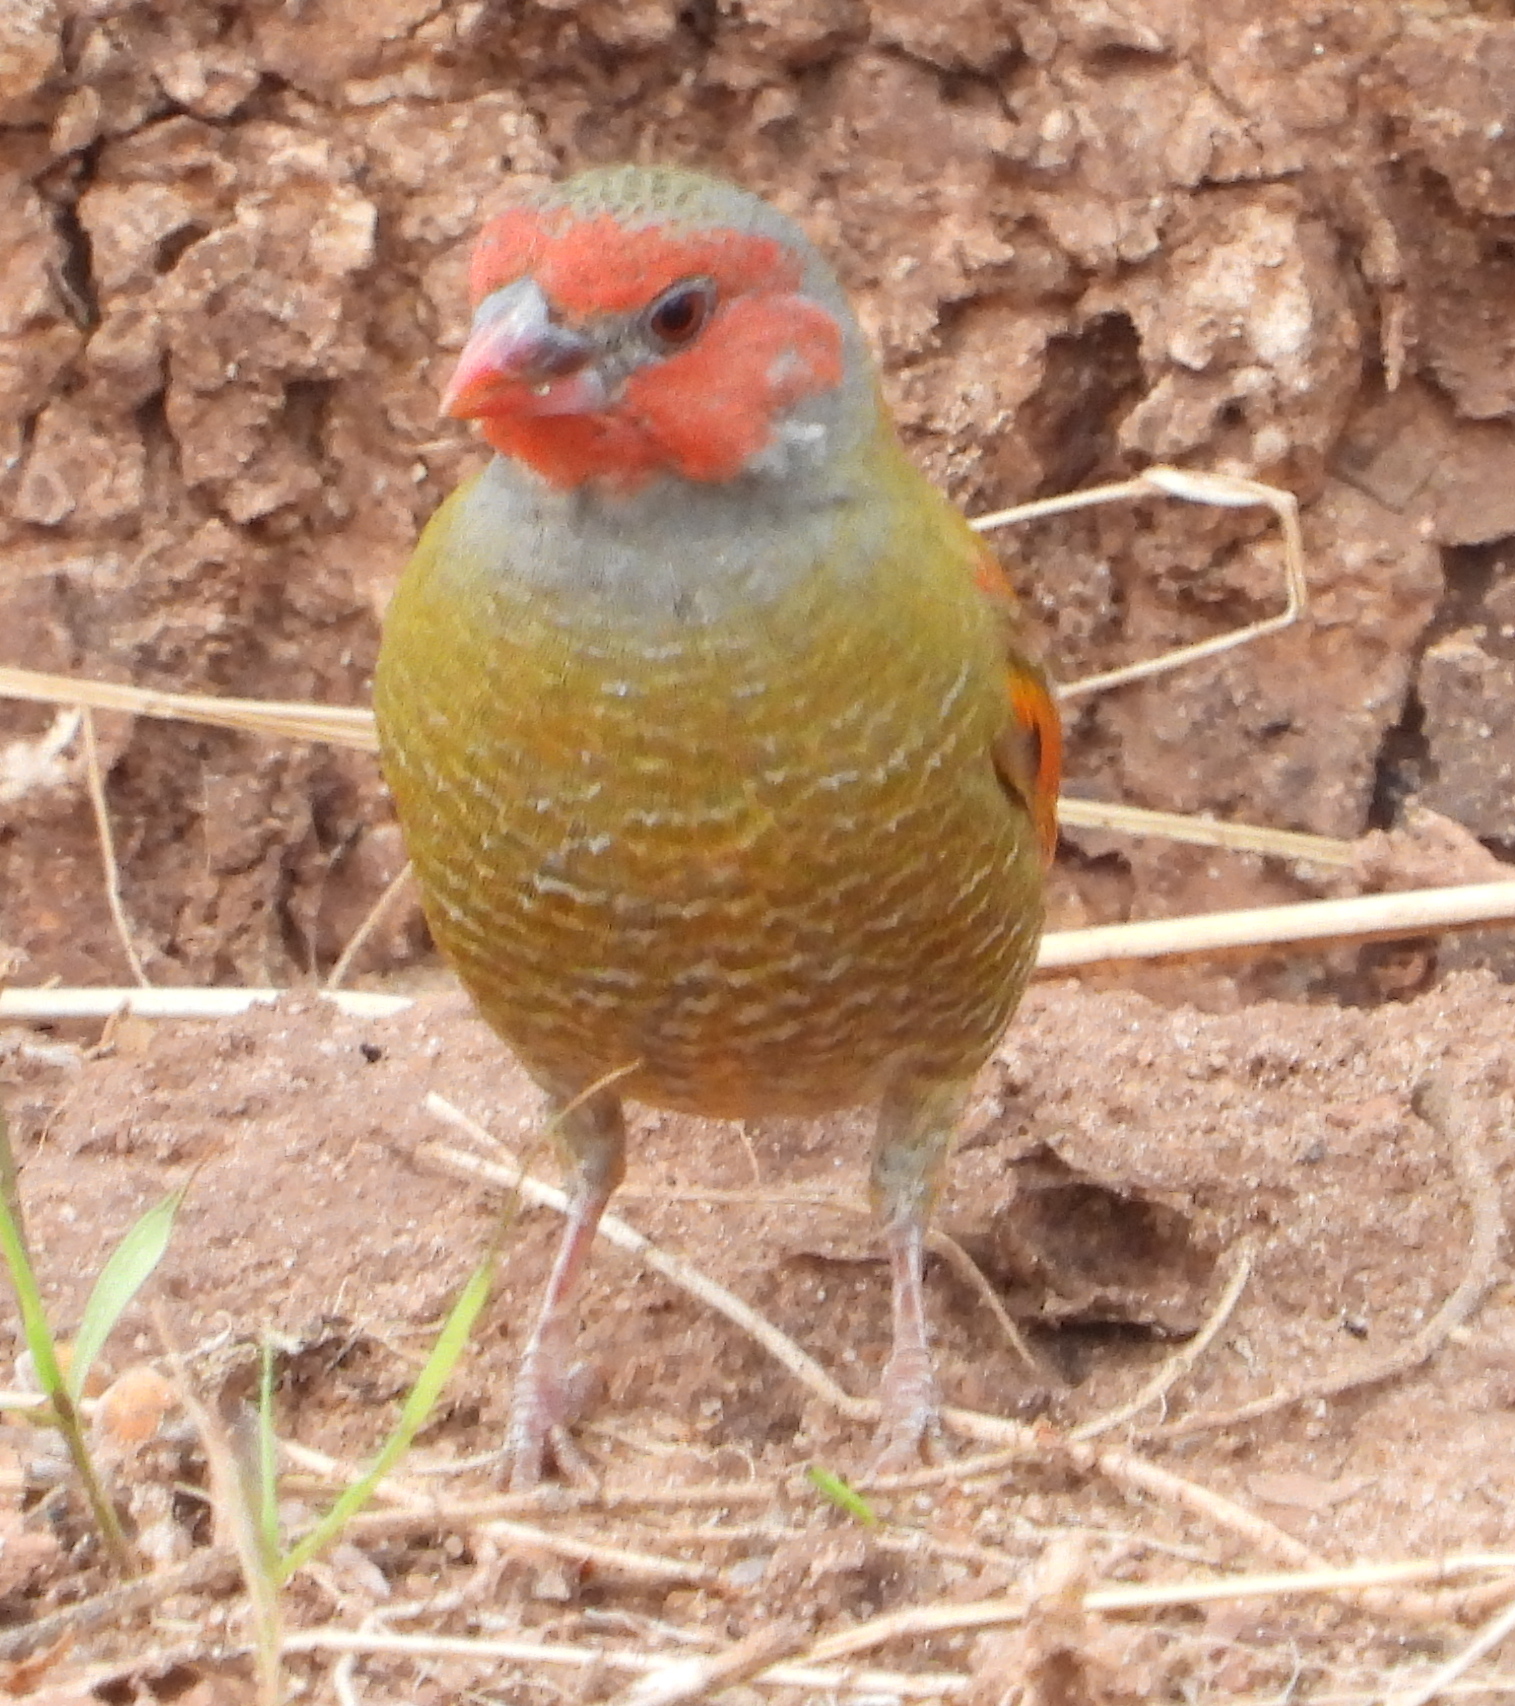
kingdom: Animalia
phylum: Chordata
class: Aves
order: Passeriformes
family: Estrildidae
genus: Pytilia
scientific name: Pytilia afra
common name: Orange-winged pytilia
